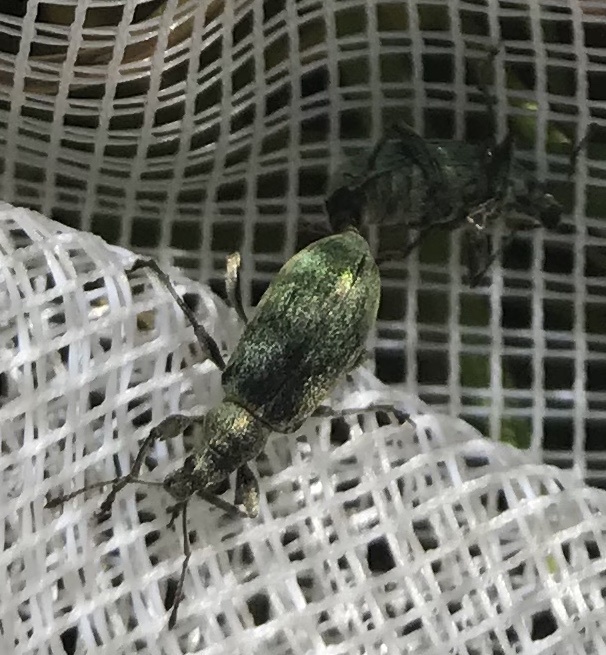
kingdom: Animalia
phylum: Arthropoda
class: Insecta
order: Coleoptera
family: Curculionidae
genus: Phyllobius
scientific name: Phyllobius pomaceus
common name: Green nettle weevil
